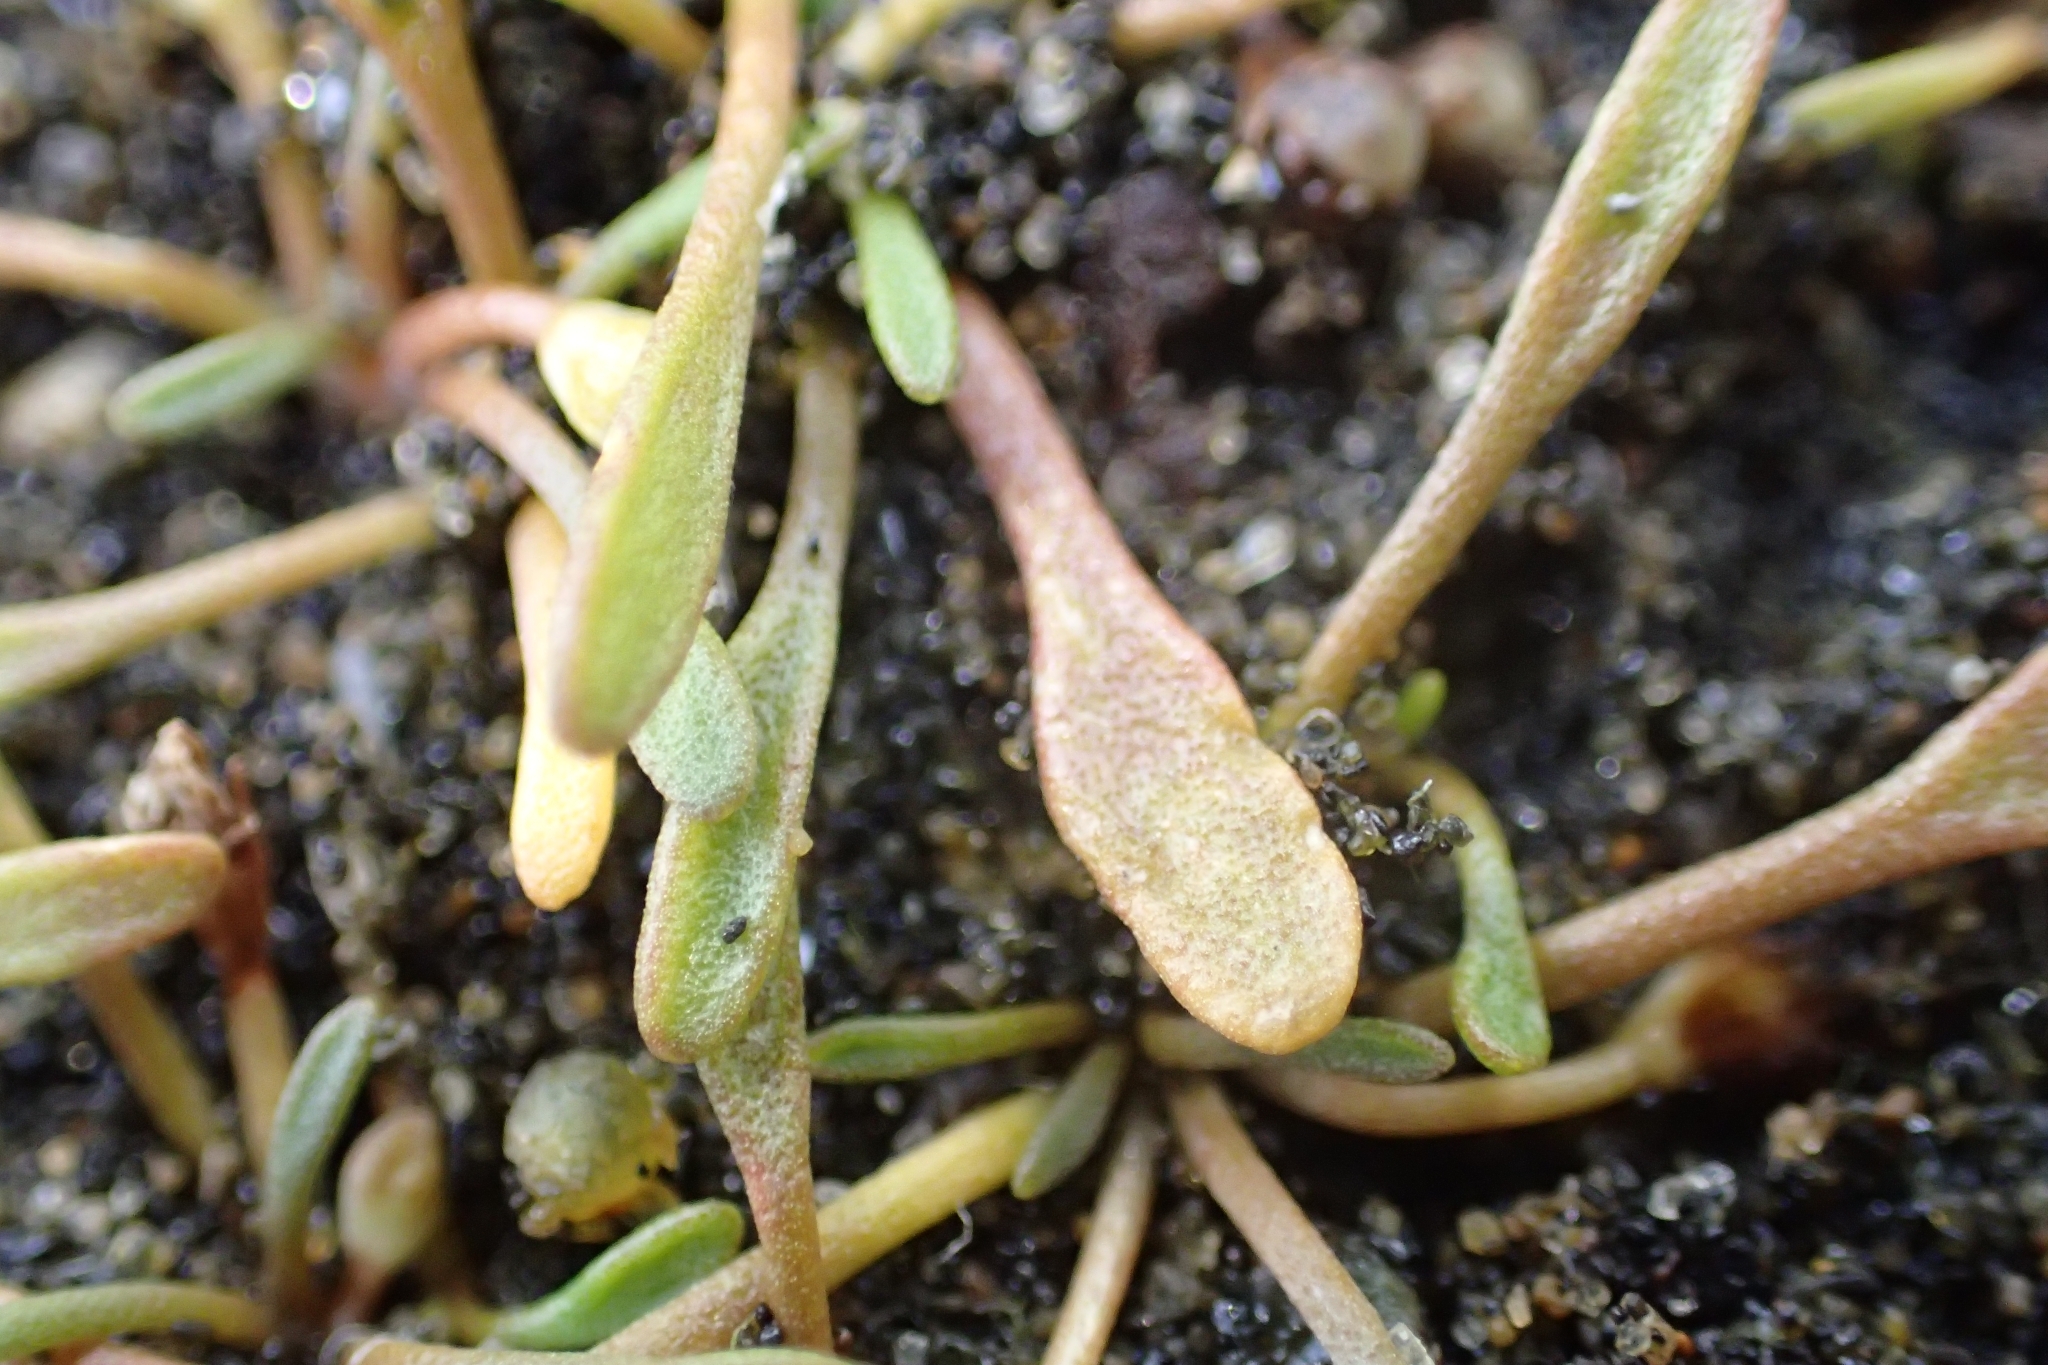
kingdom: Plantae
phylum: Tracheophyta
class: Magnoliopsida
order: Lamiales
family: Scrophulariaceae
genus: Limosella
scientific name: Limosella australis
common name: Welsh mudwort
